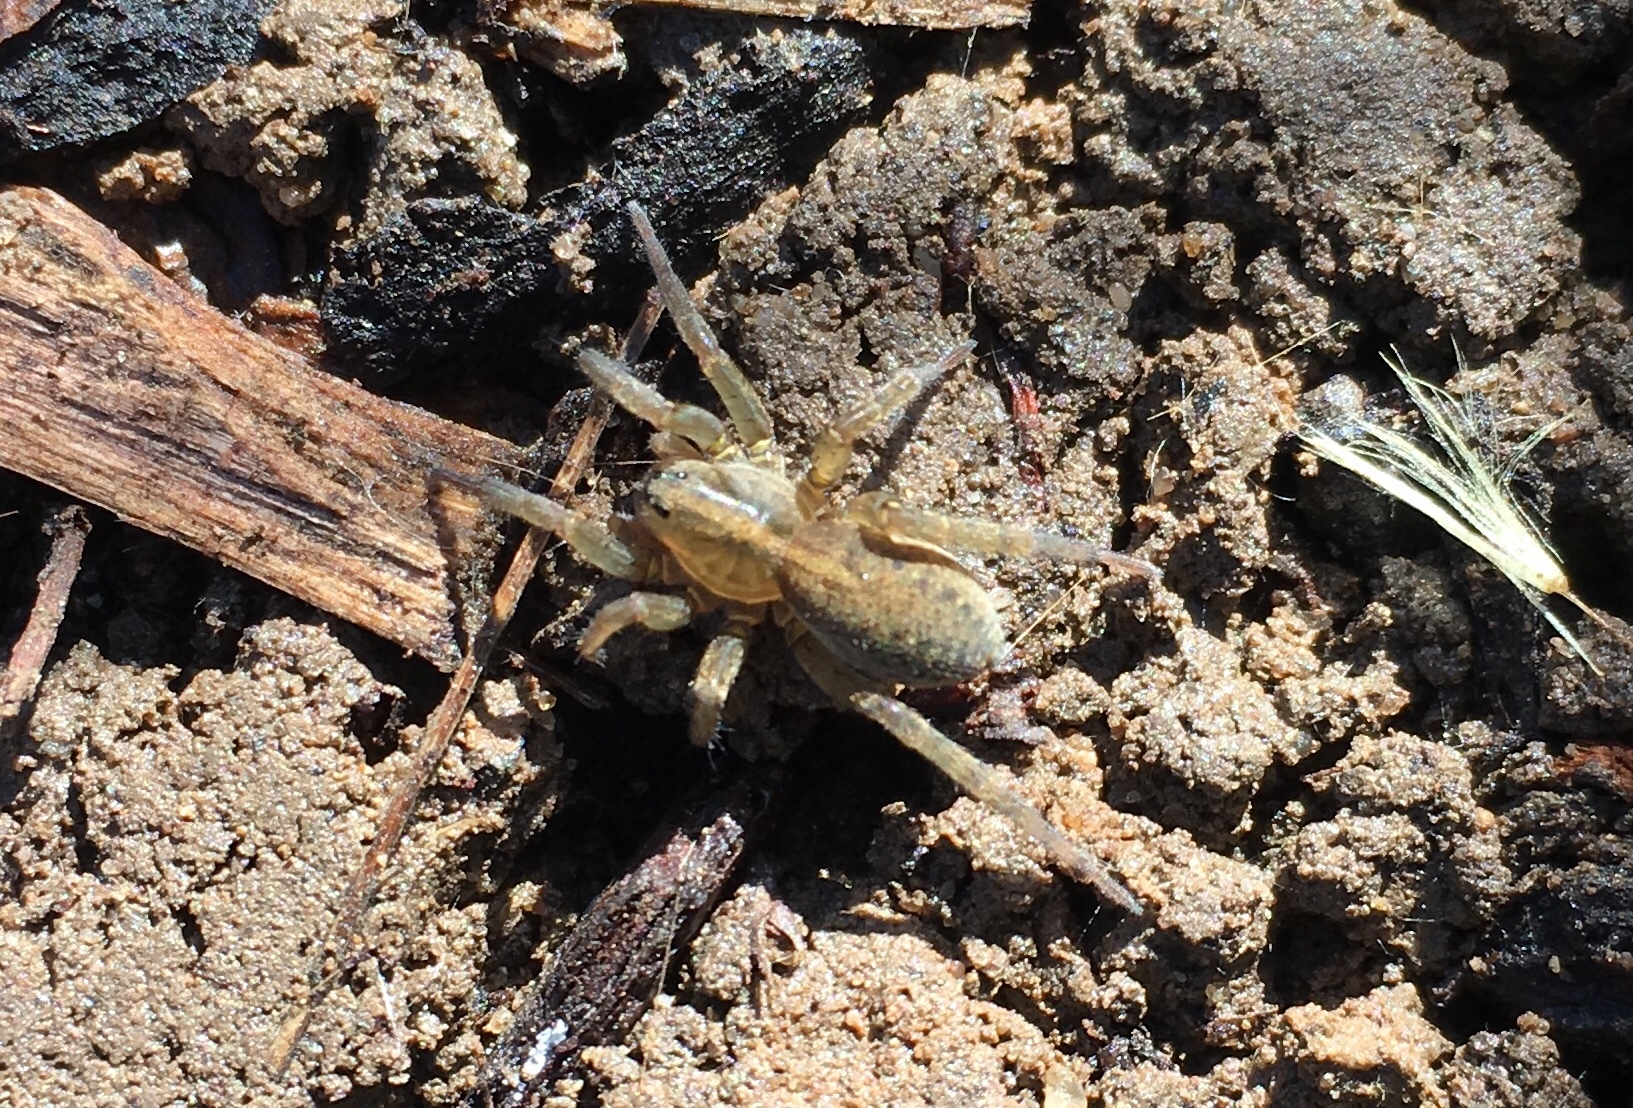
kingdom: Animalia
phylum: Arthropoda
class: Arachnida
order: Araneae
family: Lycosidae
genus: Trochosa
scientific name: Trochosa
